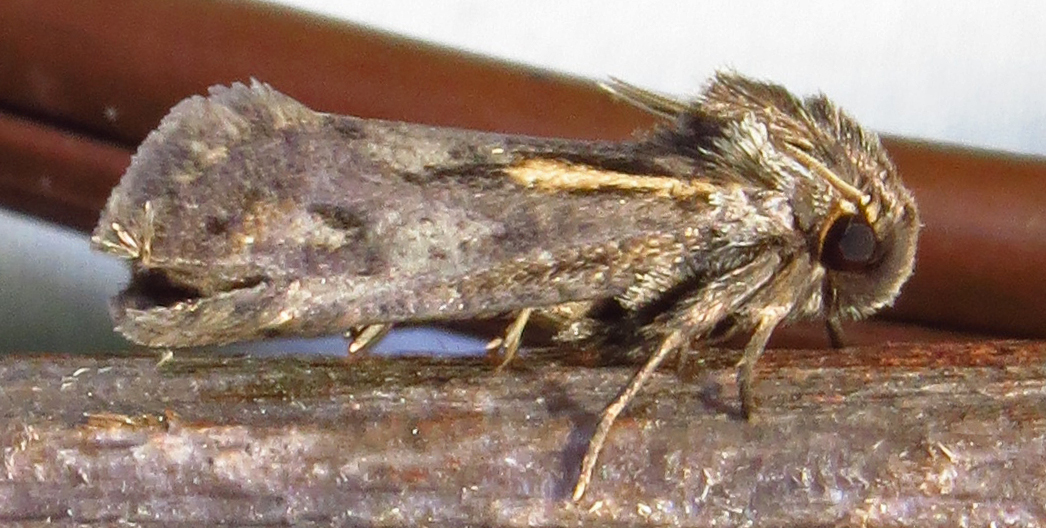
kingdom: Animalia
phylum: Arthropoda
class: Insecta
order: Lepidoptera
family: Tineidae
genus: Acrolophus
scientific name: Acrolophus popeanella
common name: Clemens' grass tubeworm moth
